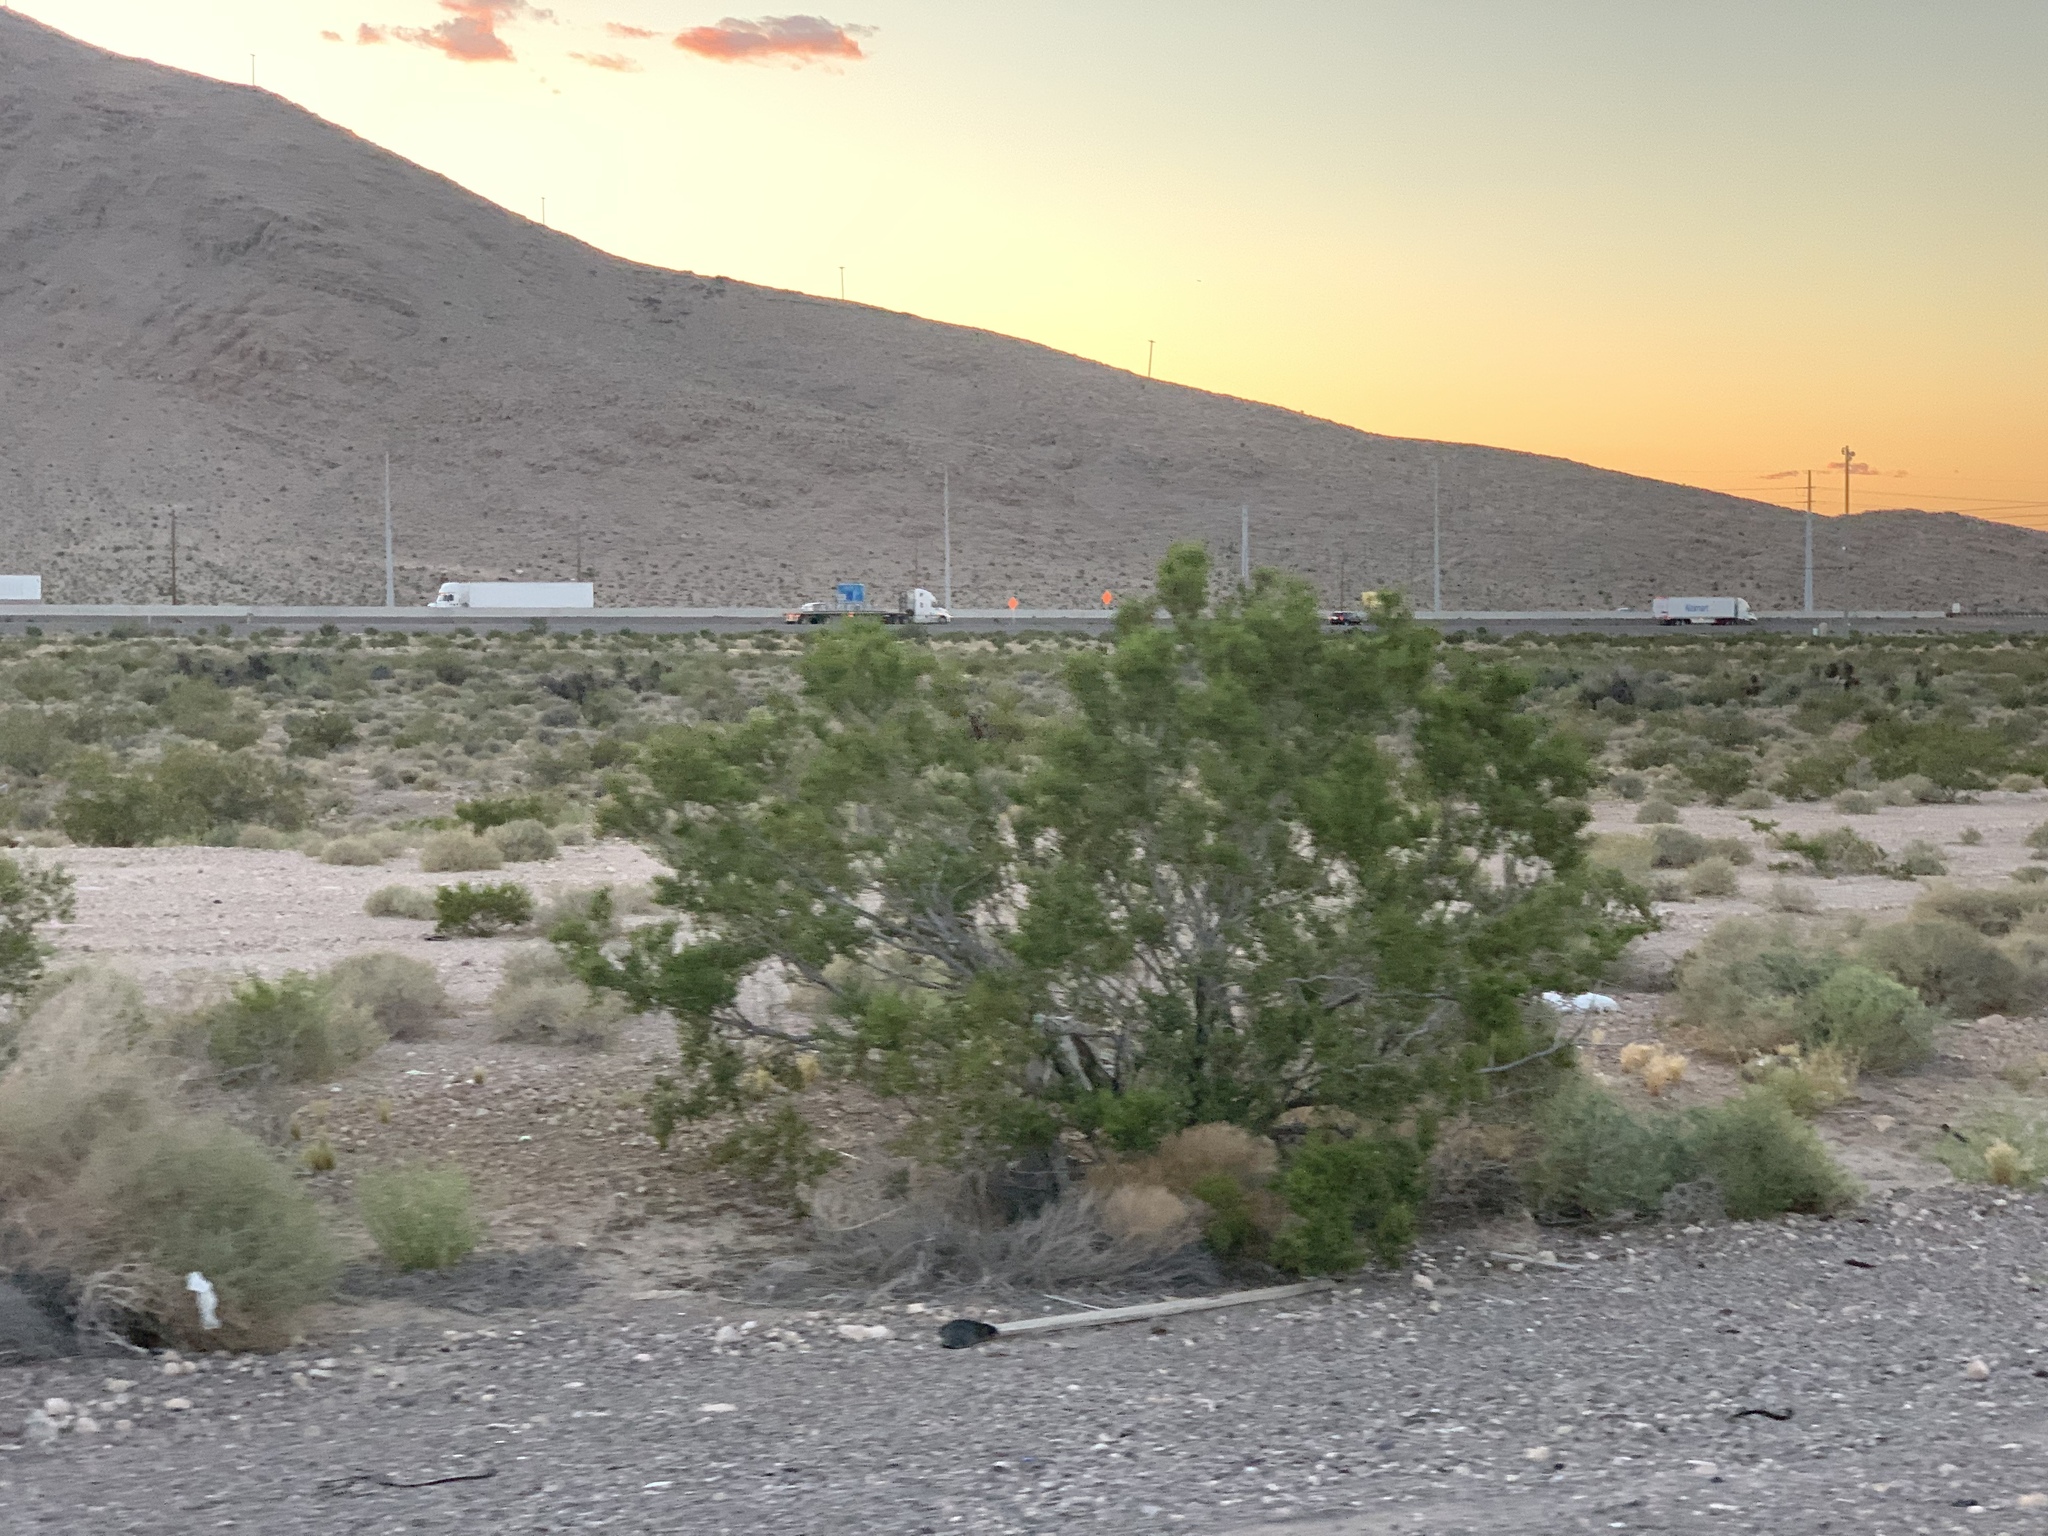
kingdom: Plantae
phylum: Tracheophyta
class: Magnoliopsida
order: Zygophyllales
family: Zygophyllaceae
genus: Larrea
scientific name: Larrea tridentata
